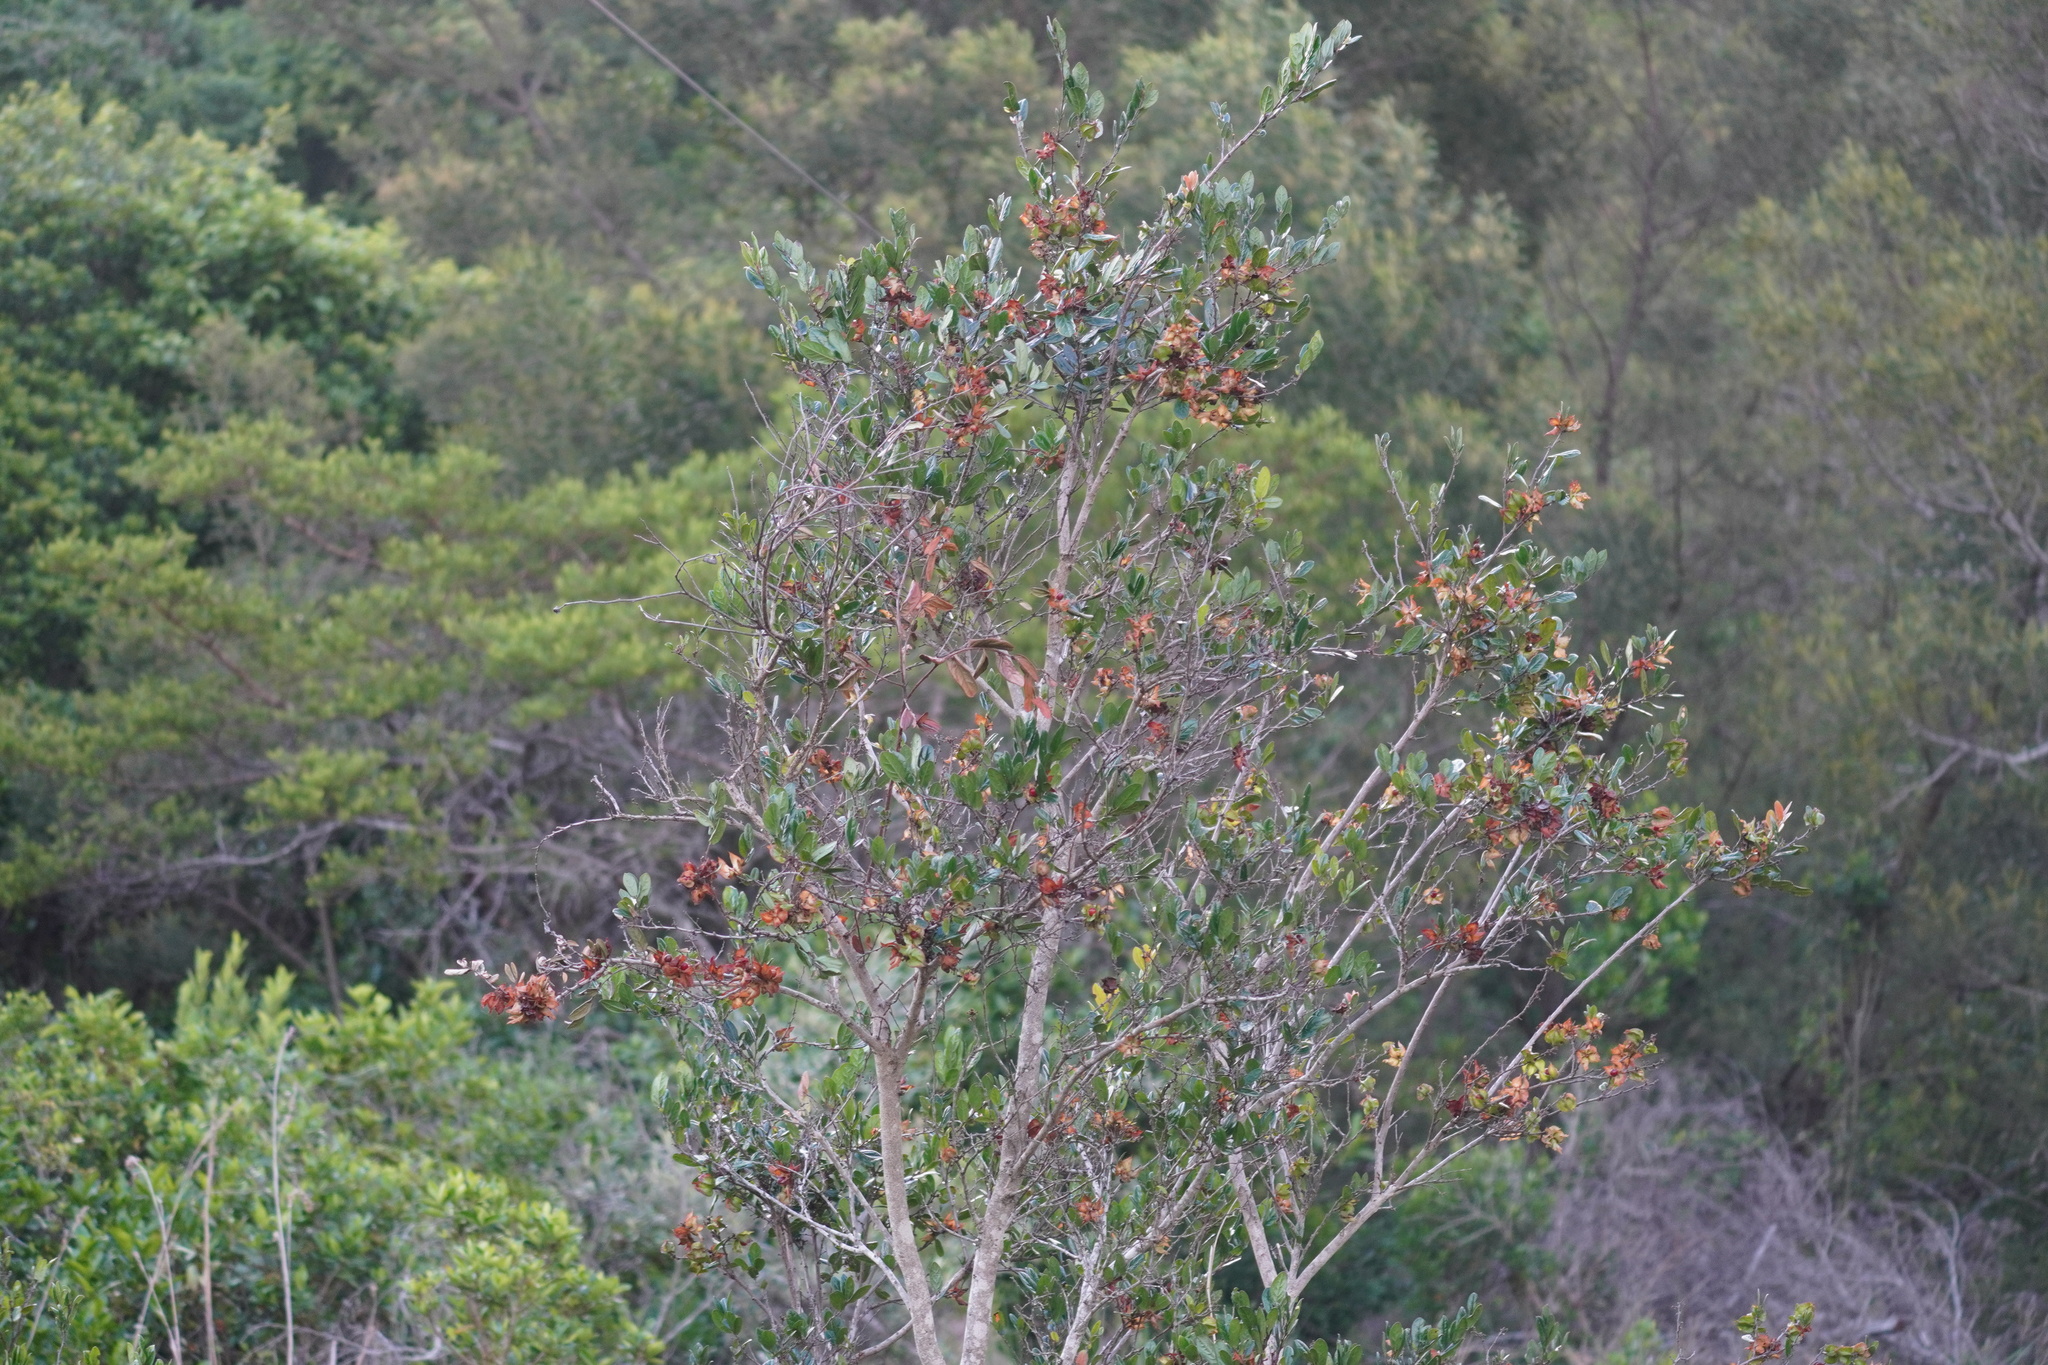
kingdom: Plantae
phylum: Tracheophyta
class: Magnoliopsida
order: Ericales
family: Ebenaceae
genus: Diospyros
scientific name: Diospyros scabrida
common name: Coastal bladder-nut
